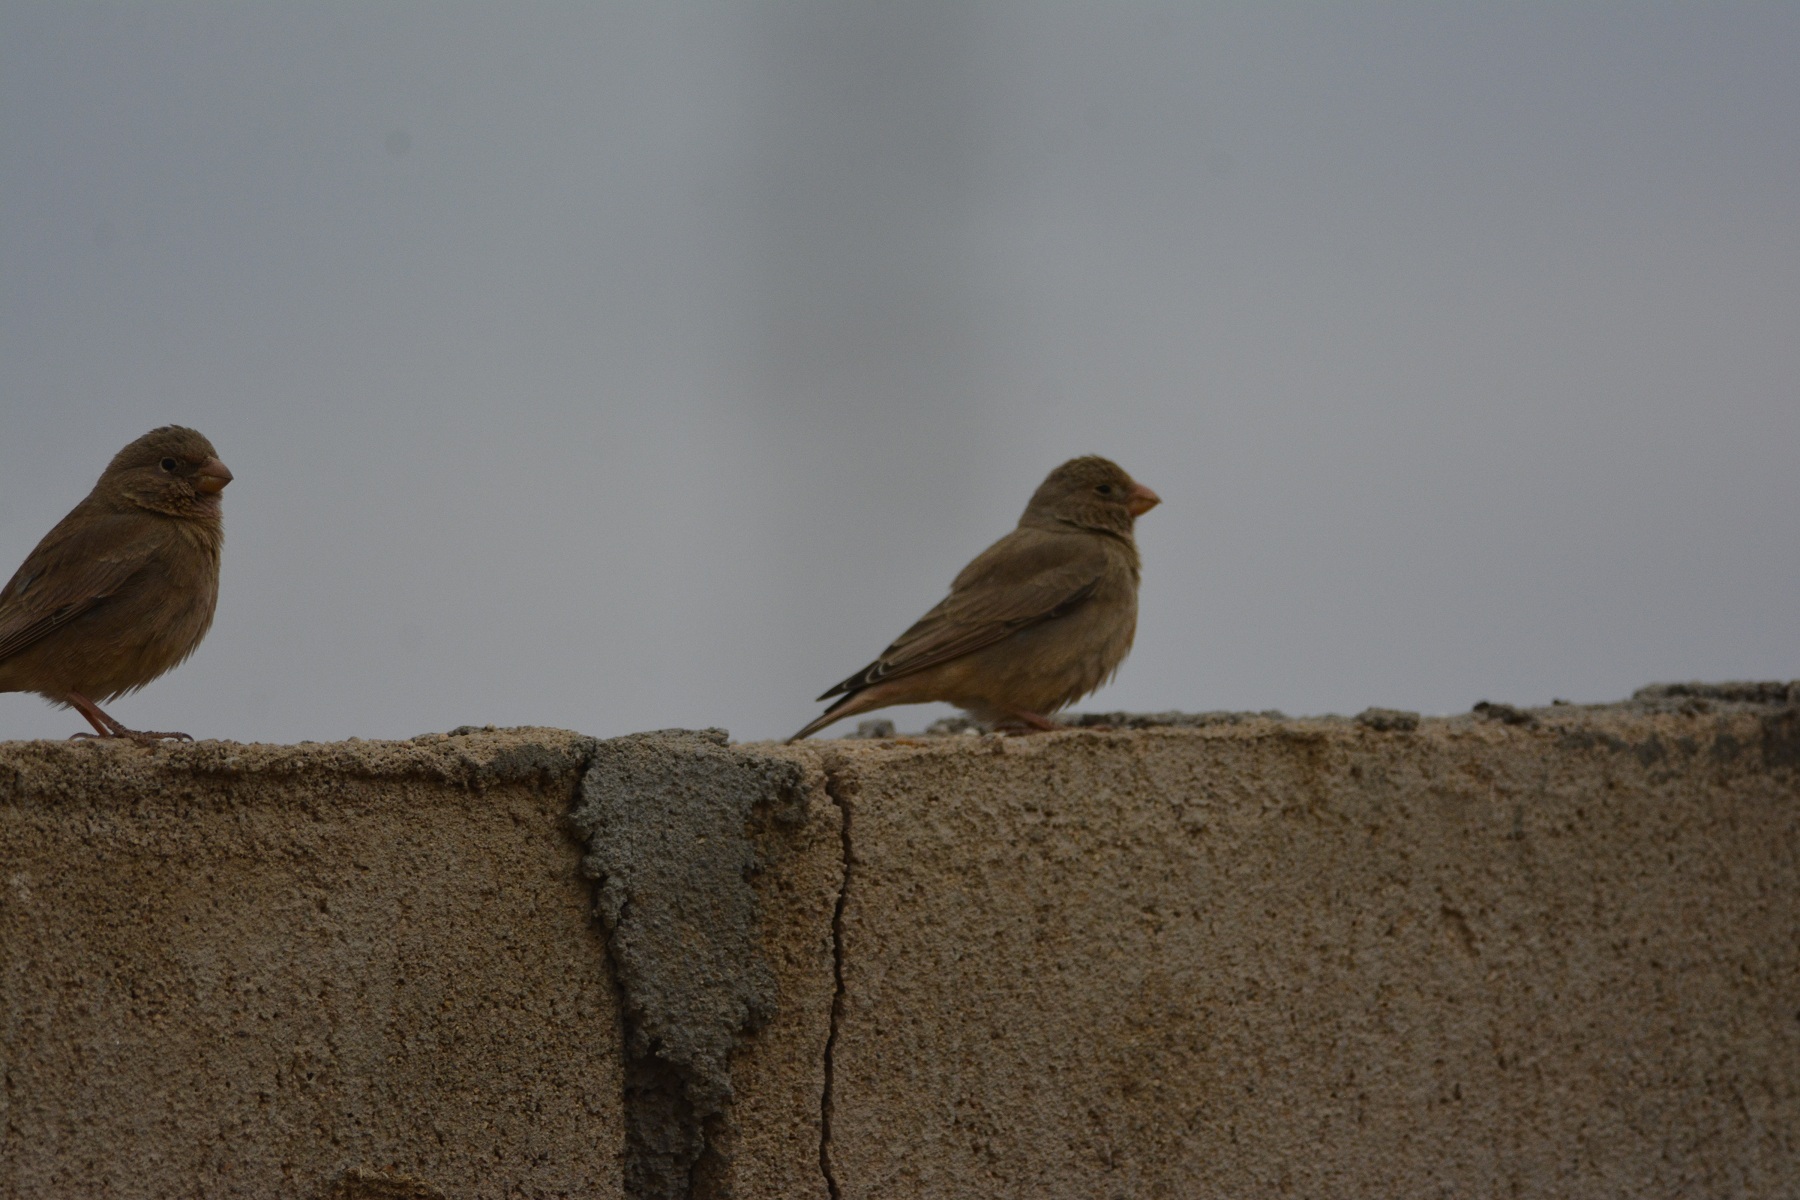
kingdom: Animalia
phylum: Chordata
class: Aves
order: Passeriformes
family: Fringillidae
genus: Bucanetes
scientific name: Bucanetes githagineus
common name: Trumpeter finch
